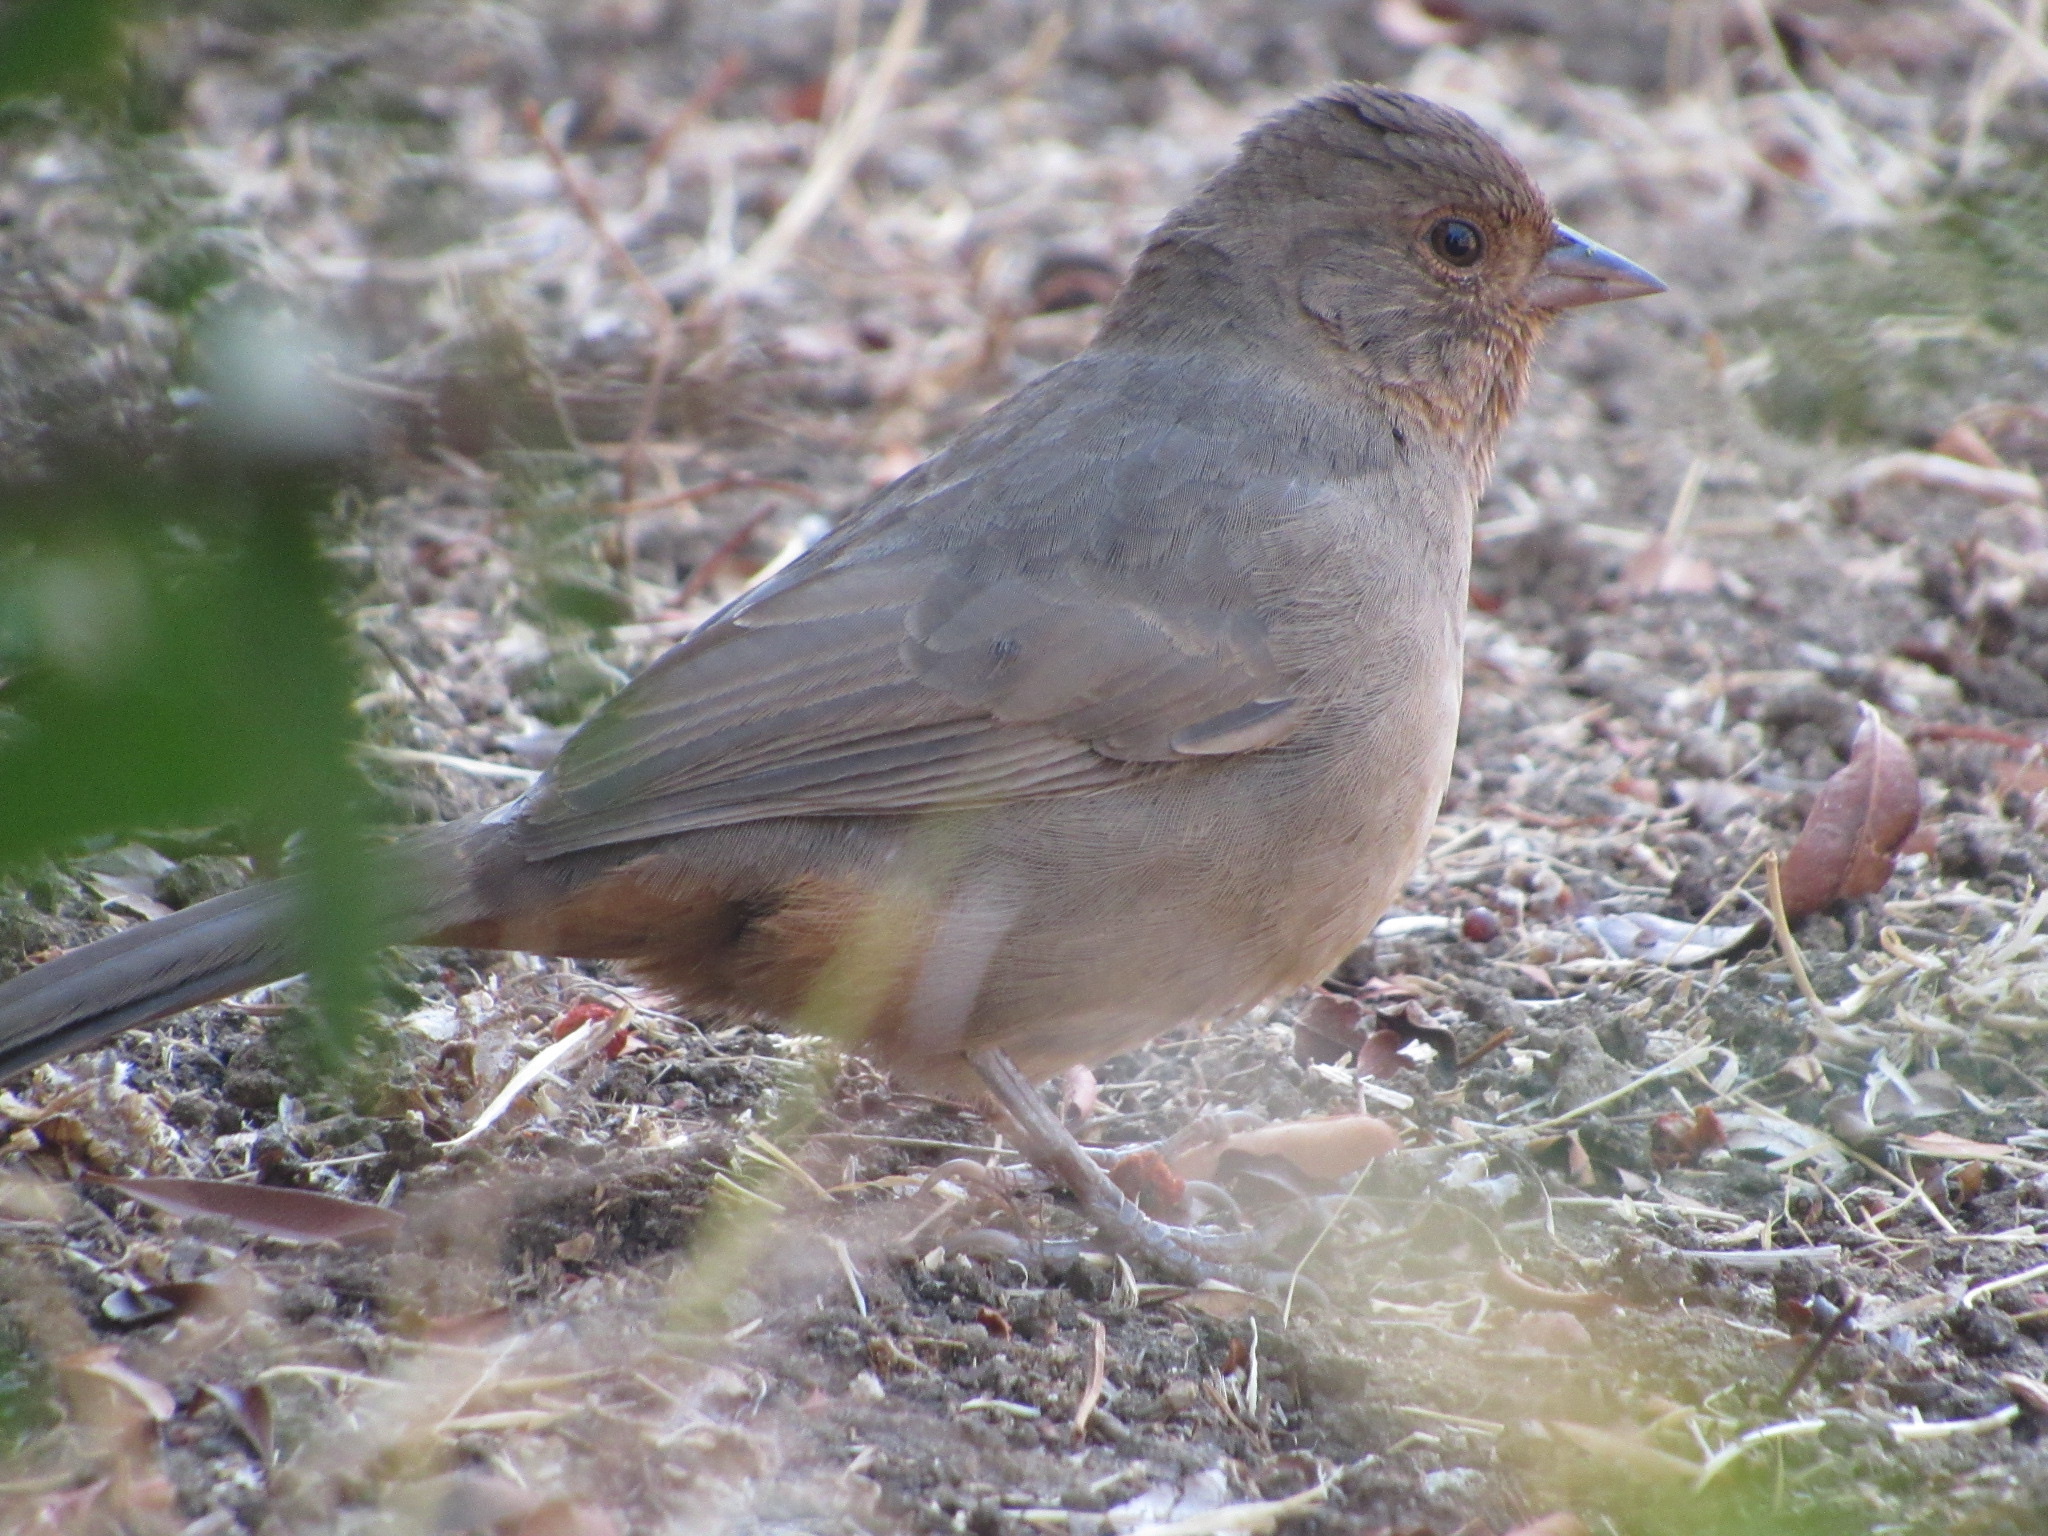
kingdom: Animalia
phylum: Chordata
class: Aves
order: Passeriformes
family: Passerellidae
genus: Melozone
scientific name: Melozone crissalis
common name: California towhee
